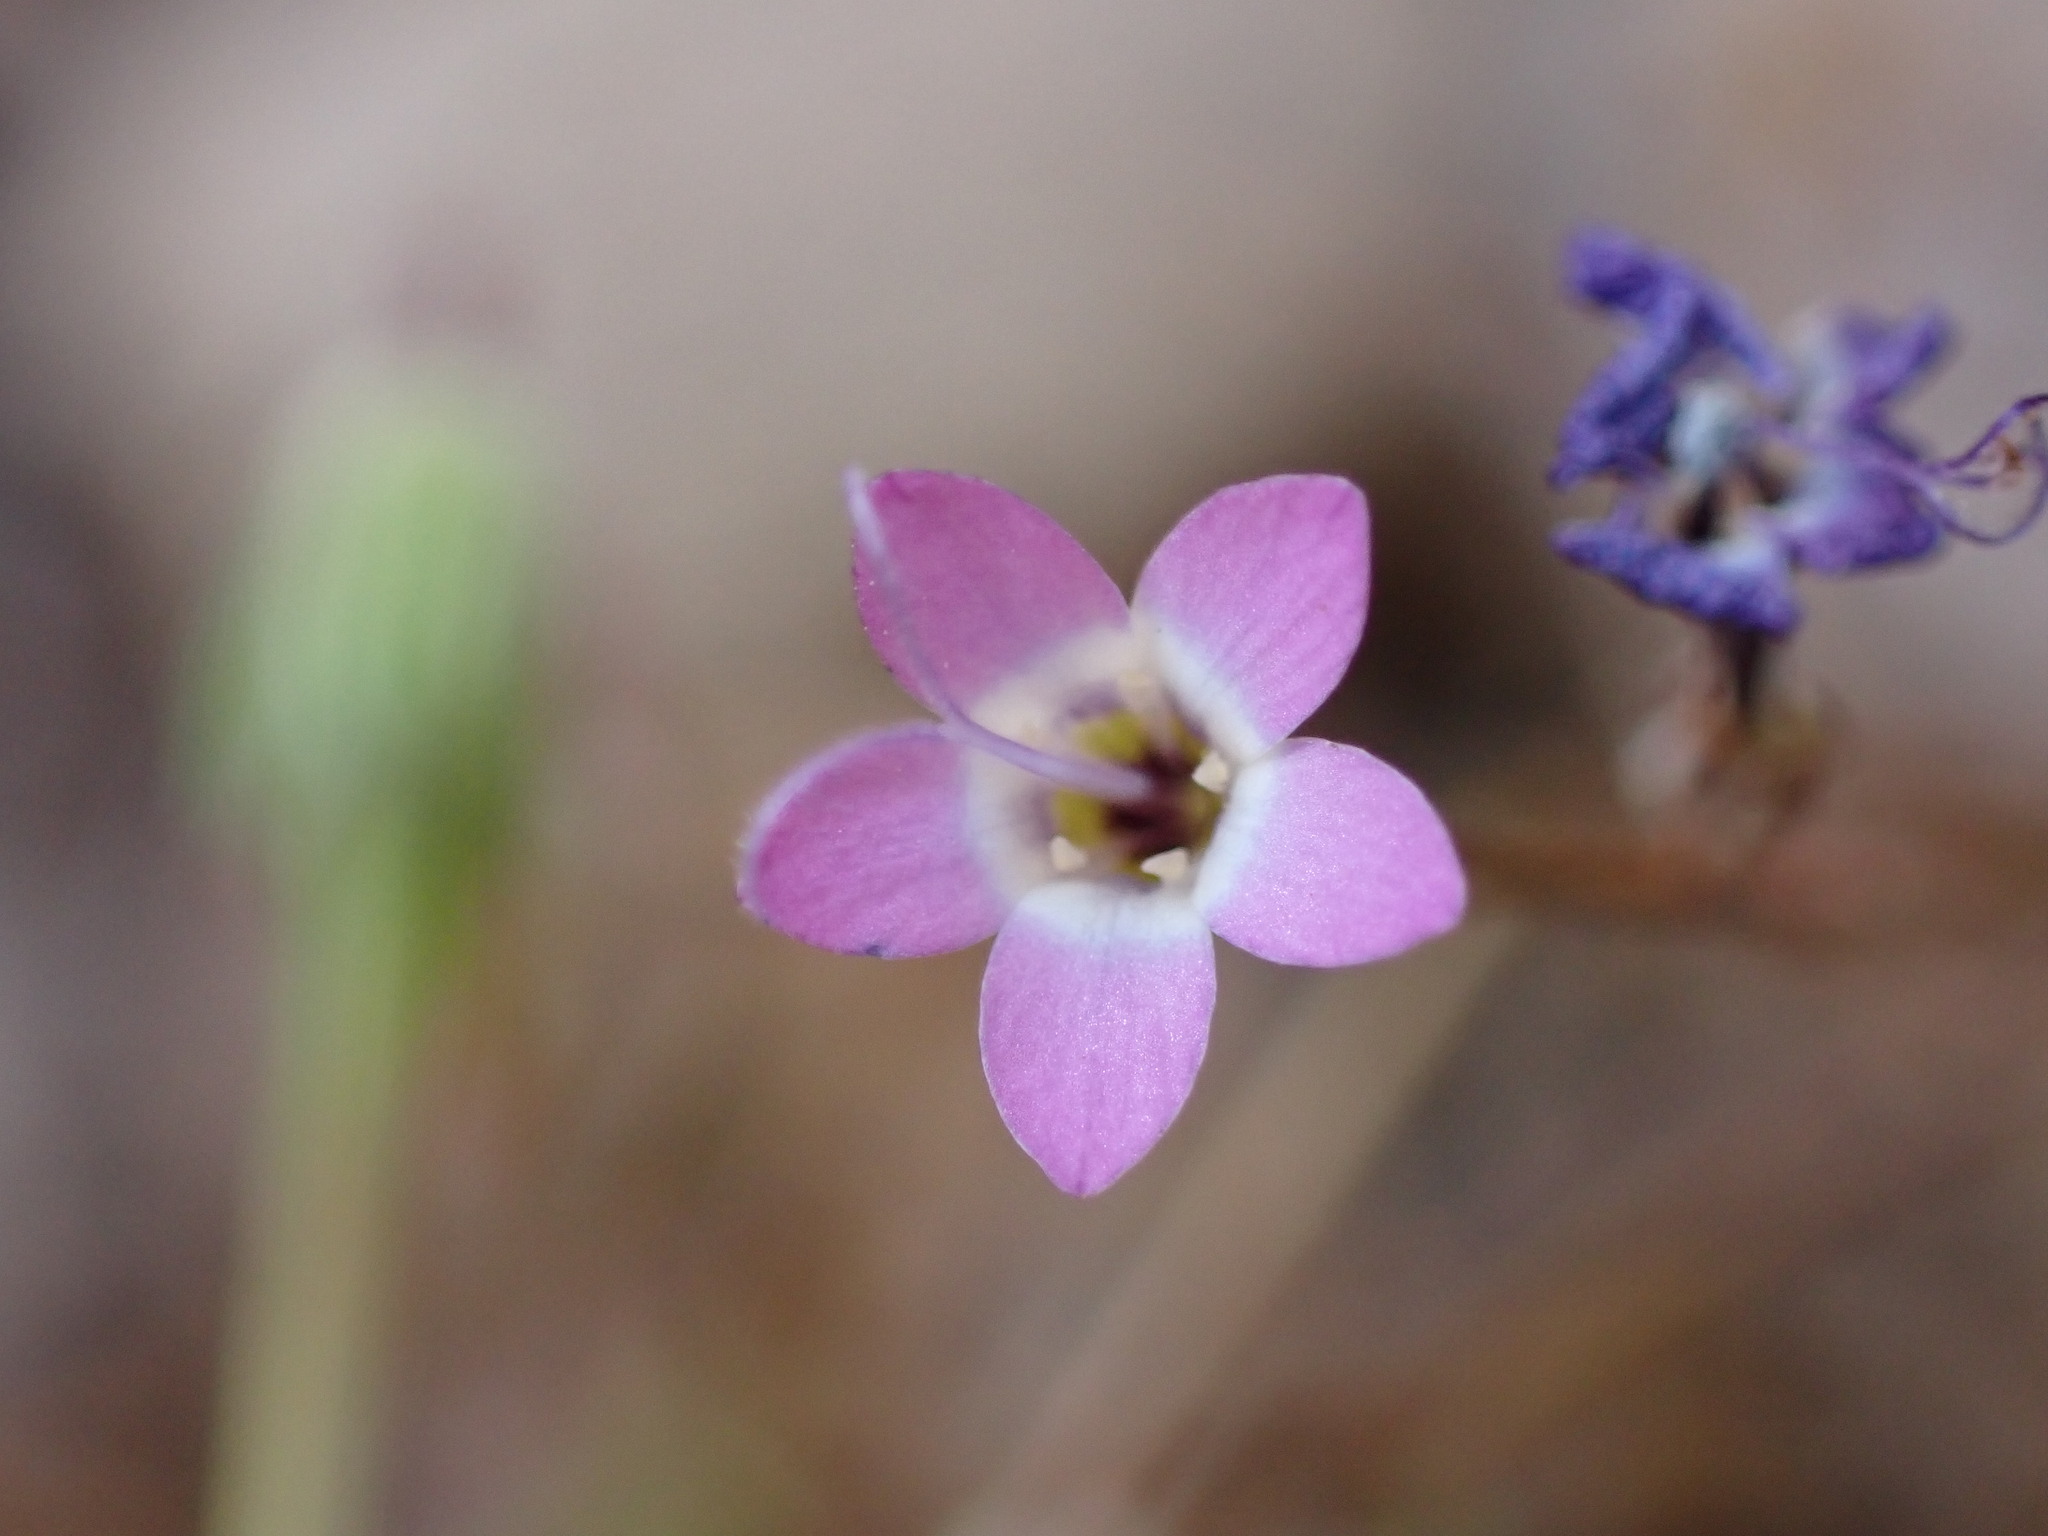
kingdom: Plantae
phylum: Tracheophyta
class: Magnoliopsida
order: Ericales
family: Polemoniaceae
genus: Gilia
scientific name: Gilia tenuiflora
